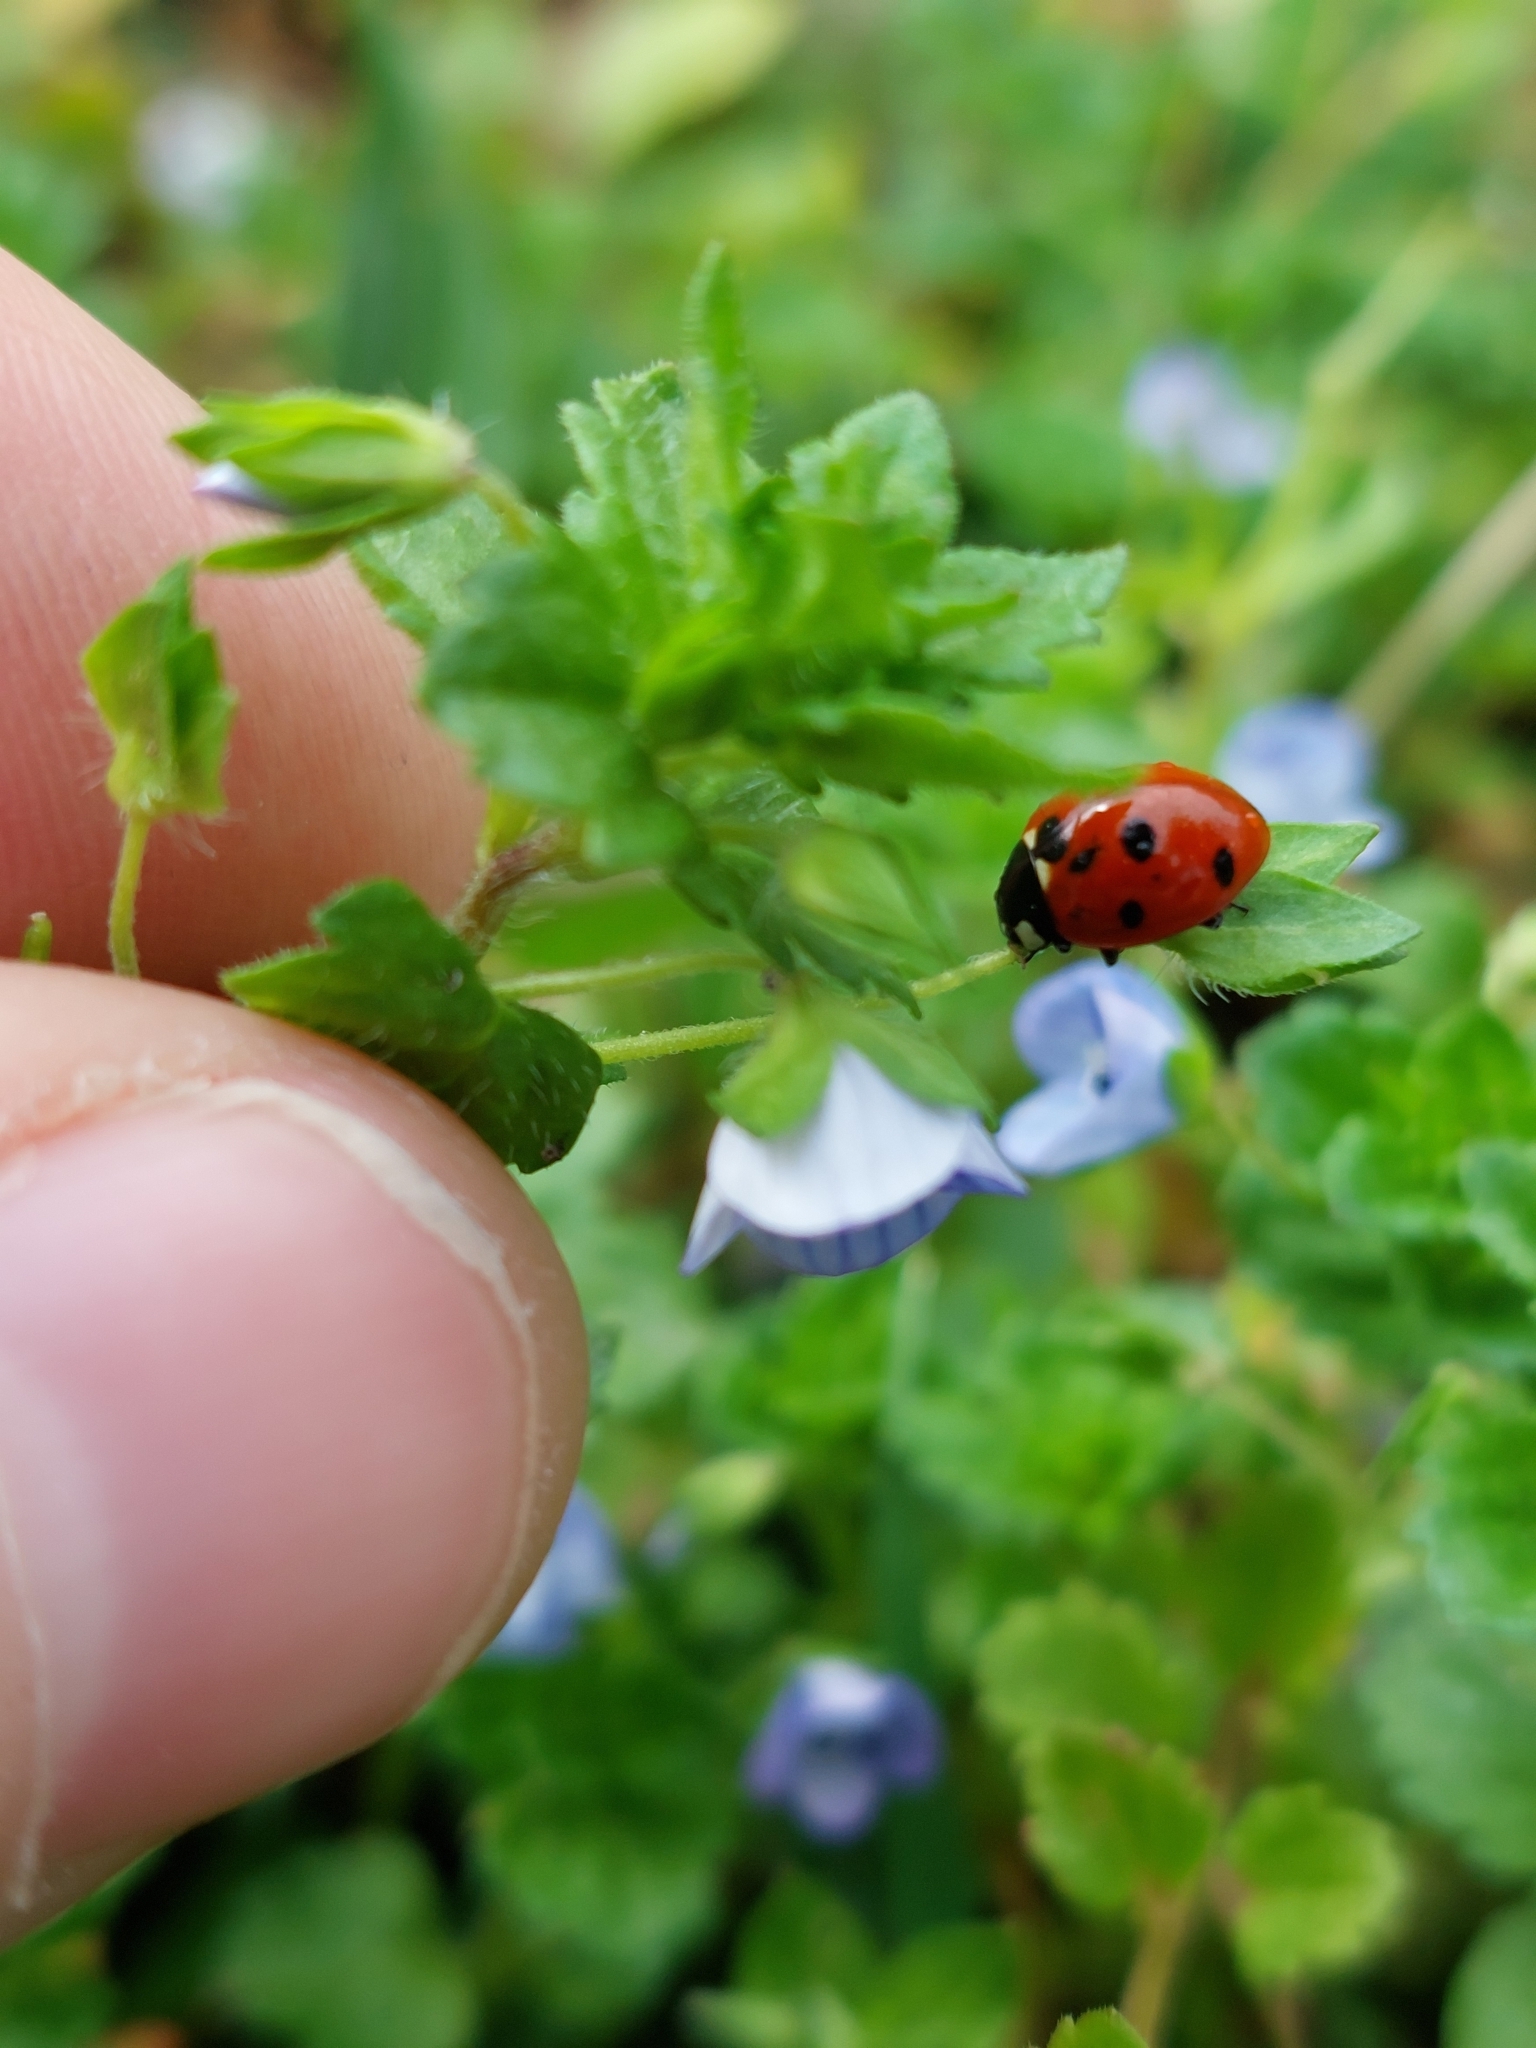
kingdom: Animalia
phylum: Arthropoda
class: Insecta
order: Coleoptera
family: Coccinellidae
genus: Coccinella
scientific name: Coccinella septempunctata
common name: Sevenspotted lady beetle
